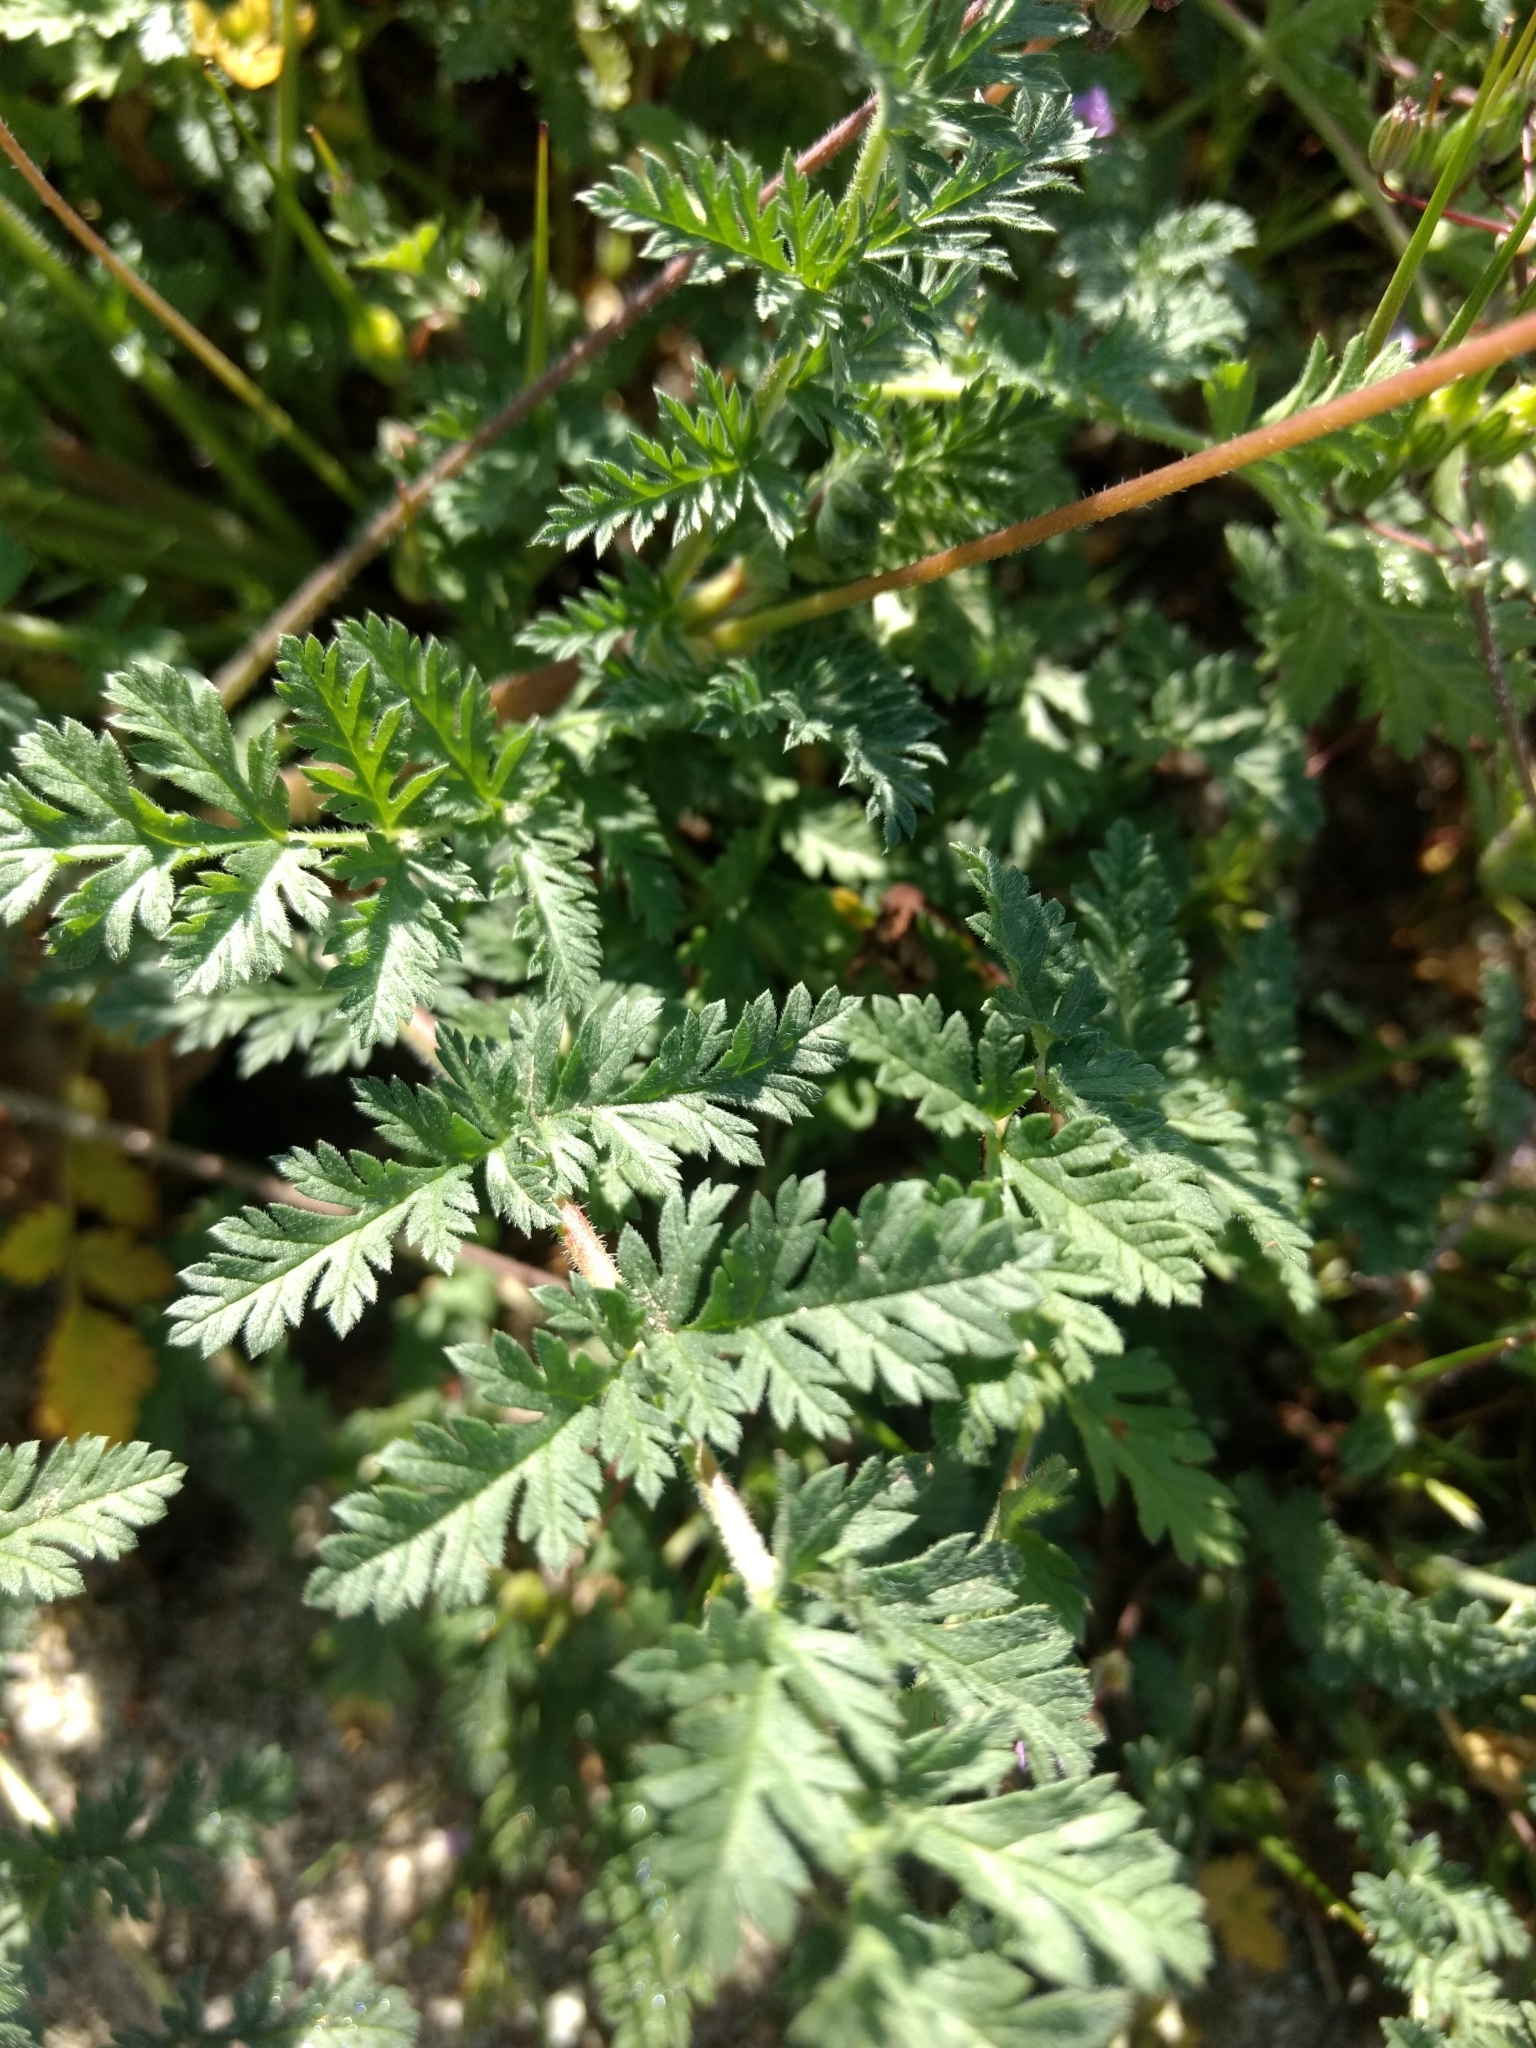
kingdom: Plantae
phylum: Tracheophyta
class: Magnoliopsida
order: Geraniales
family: Geraniaceae
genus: Erodium
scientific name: Erodium cicutarium
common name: Common stork's-bill
